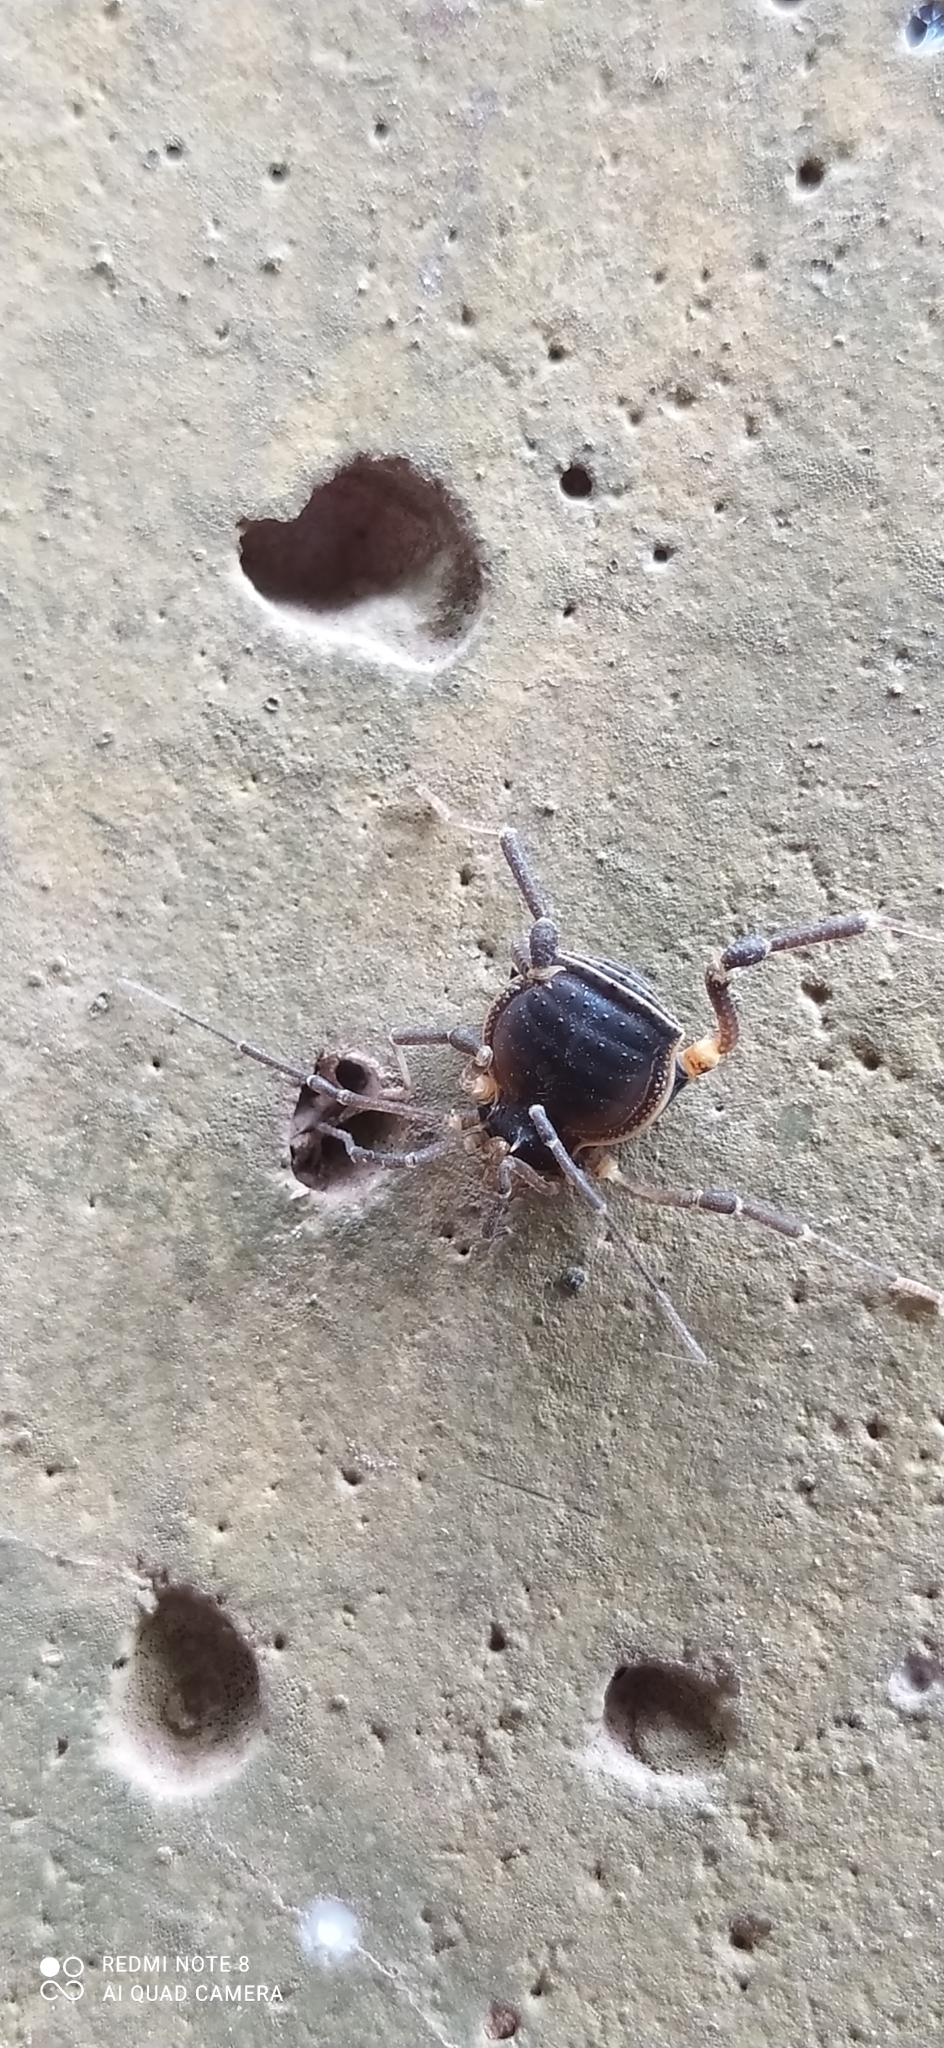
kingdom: Animalia
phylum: Arthropoda
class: Arachnida
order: Opiliones
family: Gonyleptidae
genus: Acanthopachylus
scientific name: Acanthopachylus robustus
